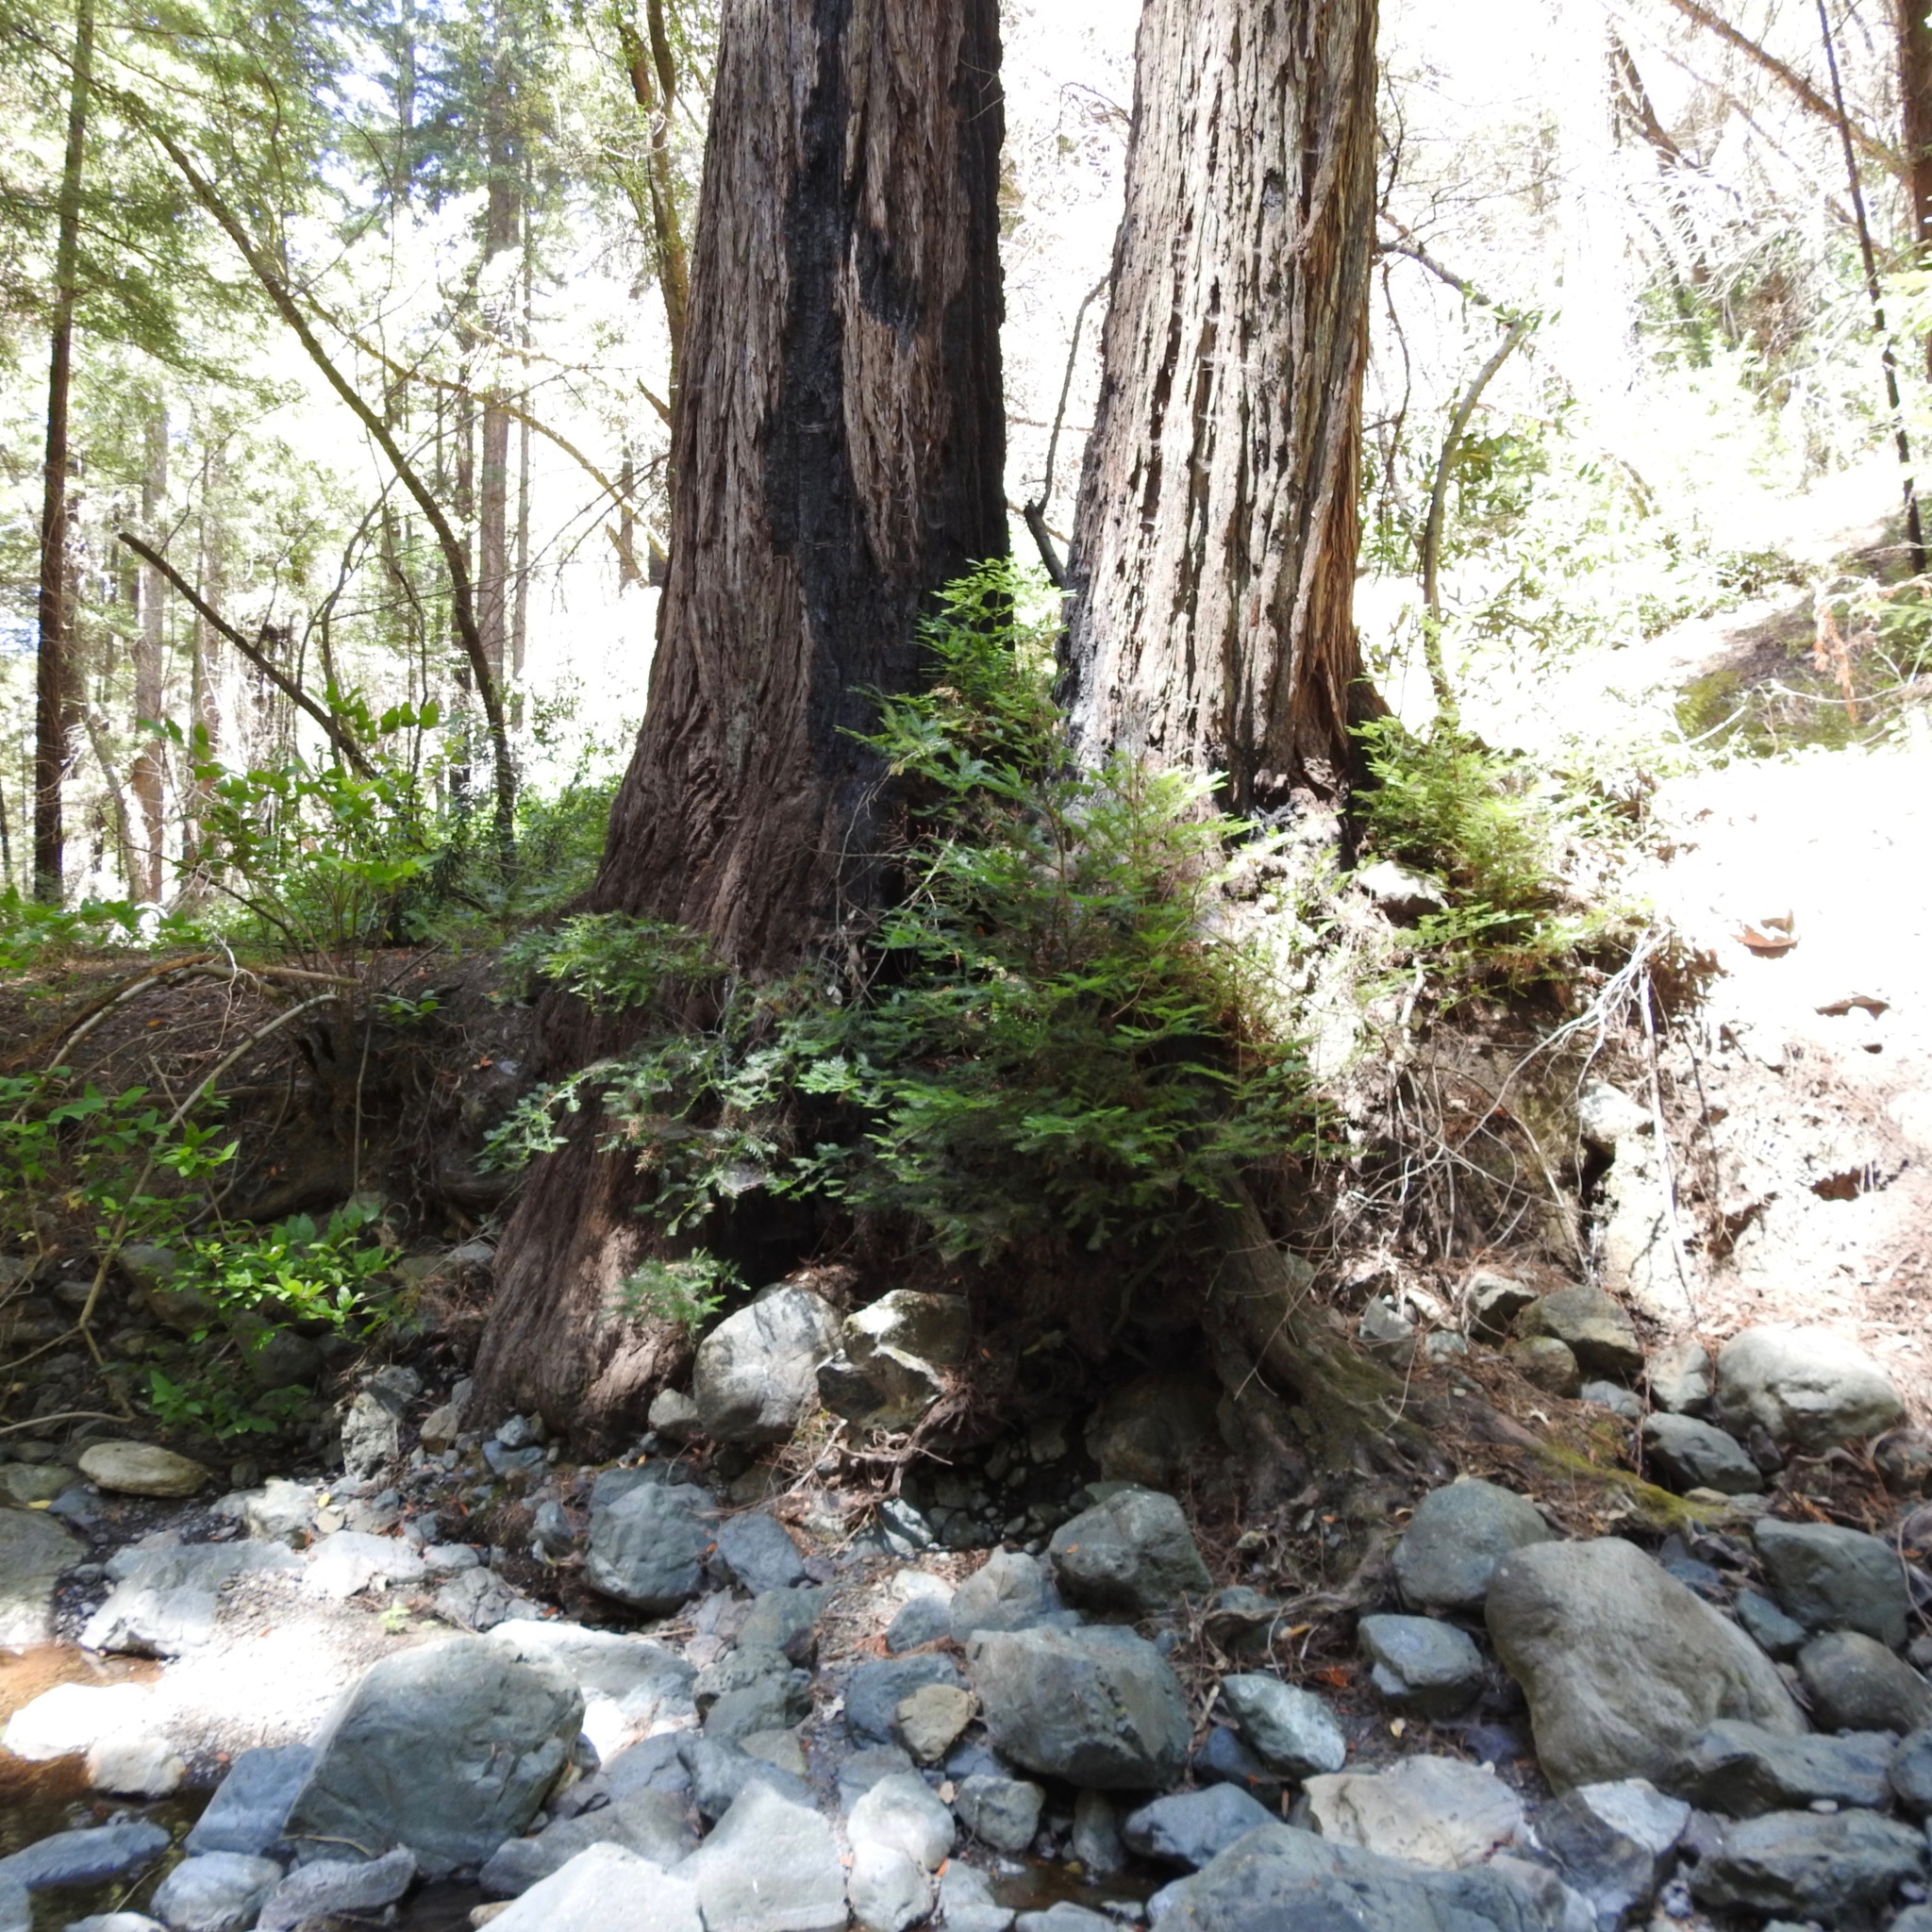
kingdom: Plantae
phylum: Tracheophyta
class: Pinopsida
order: Pinales
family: Cupressaceae
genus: Sequoia
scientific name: Sequoia sempervirens
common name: Coast redwood
